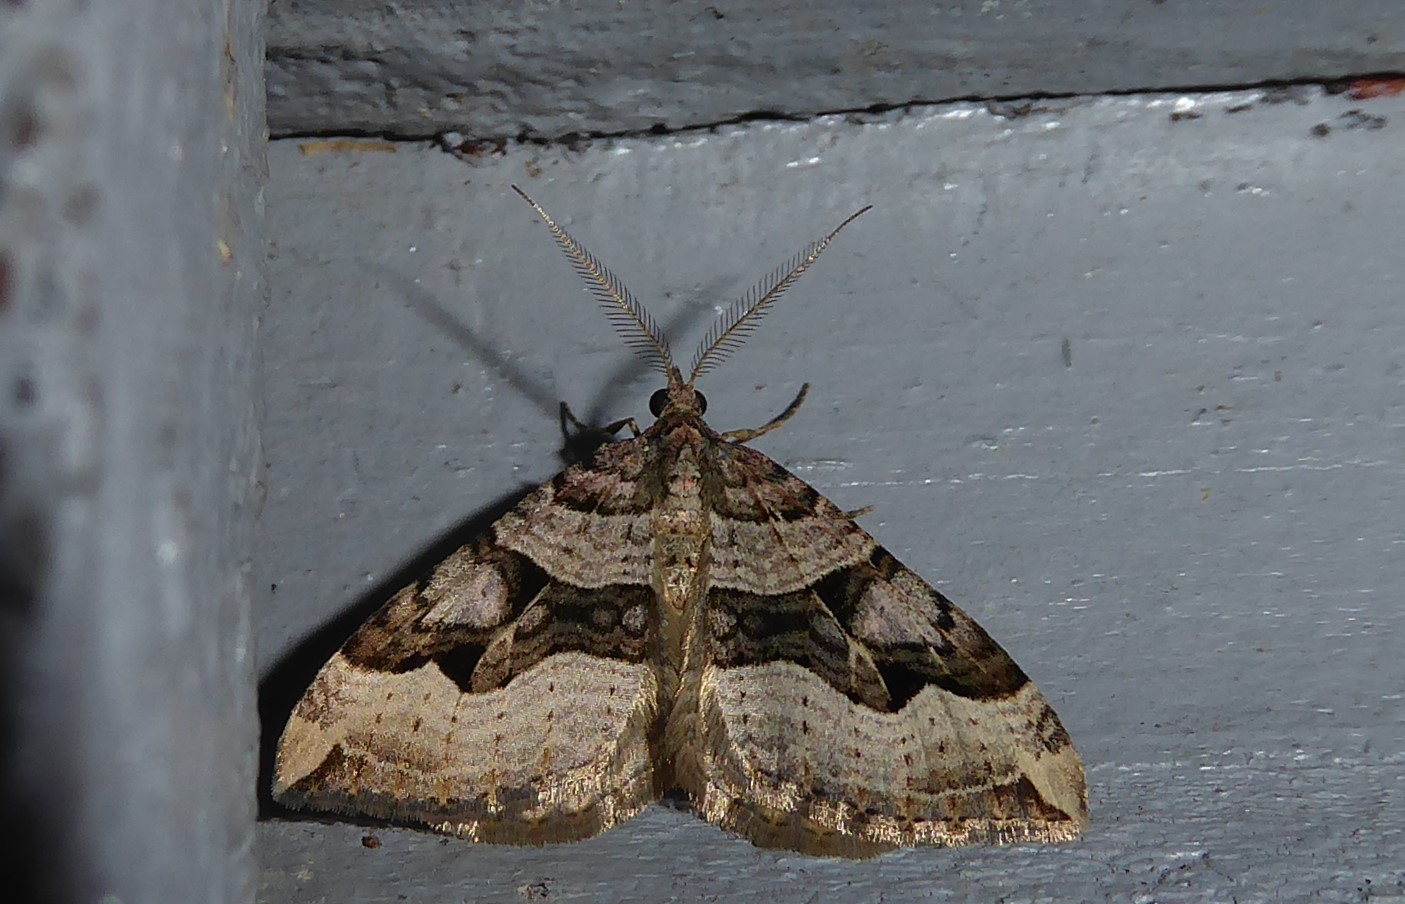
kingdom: Animalia
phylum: Arthropoda
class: Insecta
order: Lepidoptera
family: Geometridae
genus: Xanthorhoe
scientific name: Xanthorhoe semifissata
